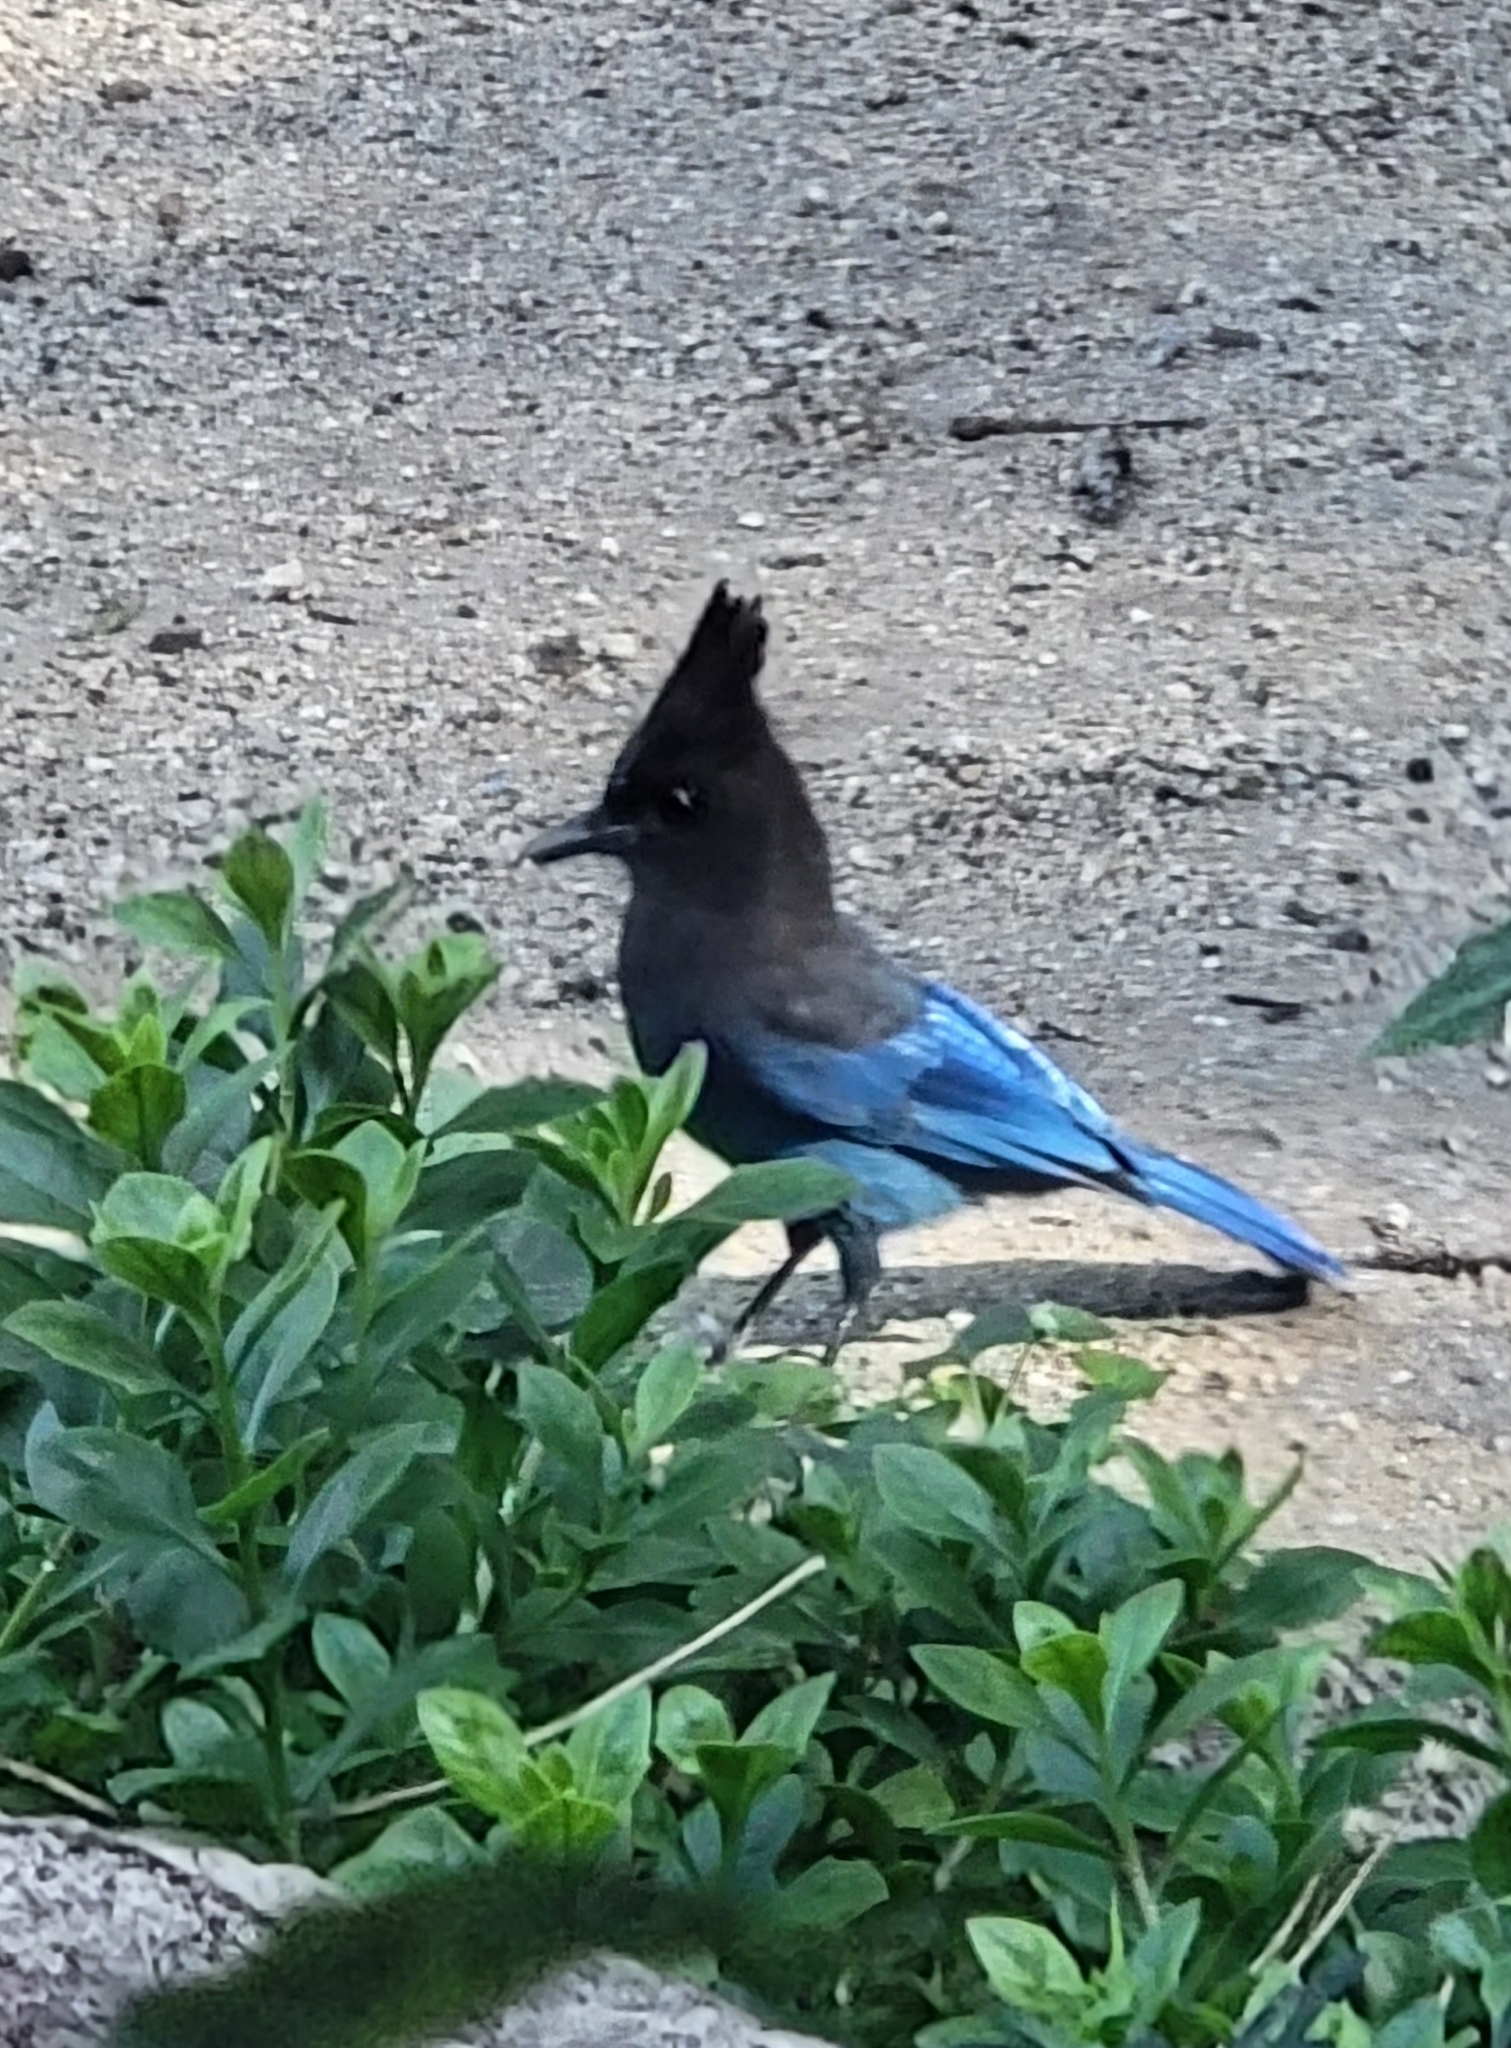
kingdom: Animalia
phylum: Chordata
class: Aves
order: Passeriformes
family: Corvidae
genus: Cyanocitta
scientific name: Cyanocitta stelleri
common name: Steller's jay
